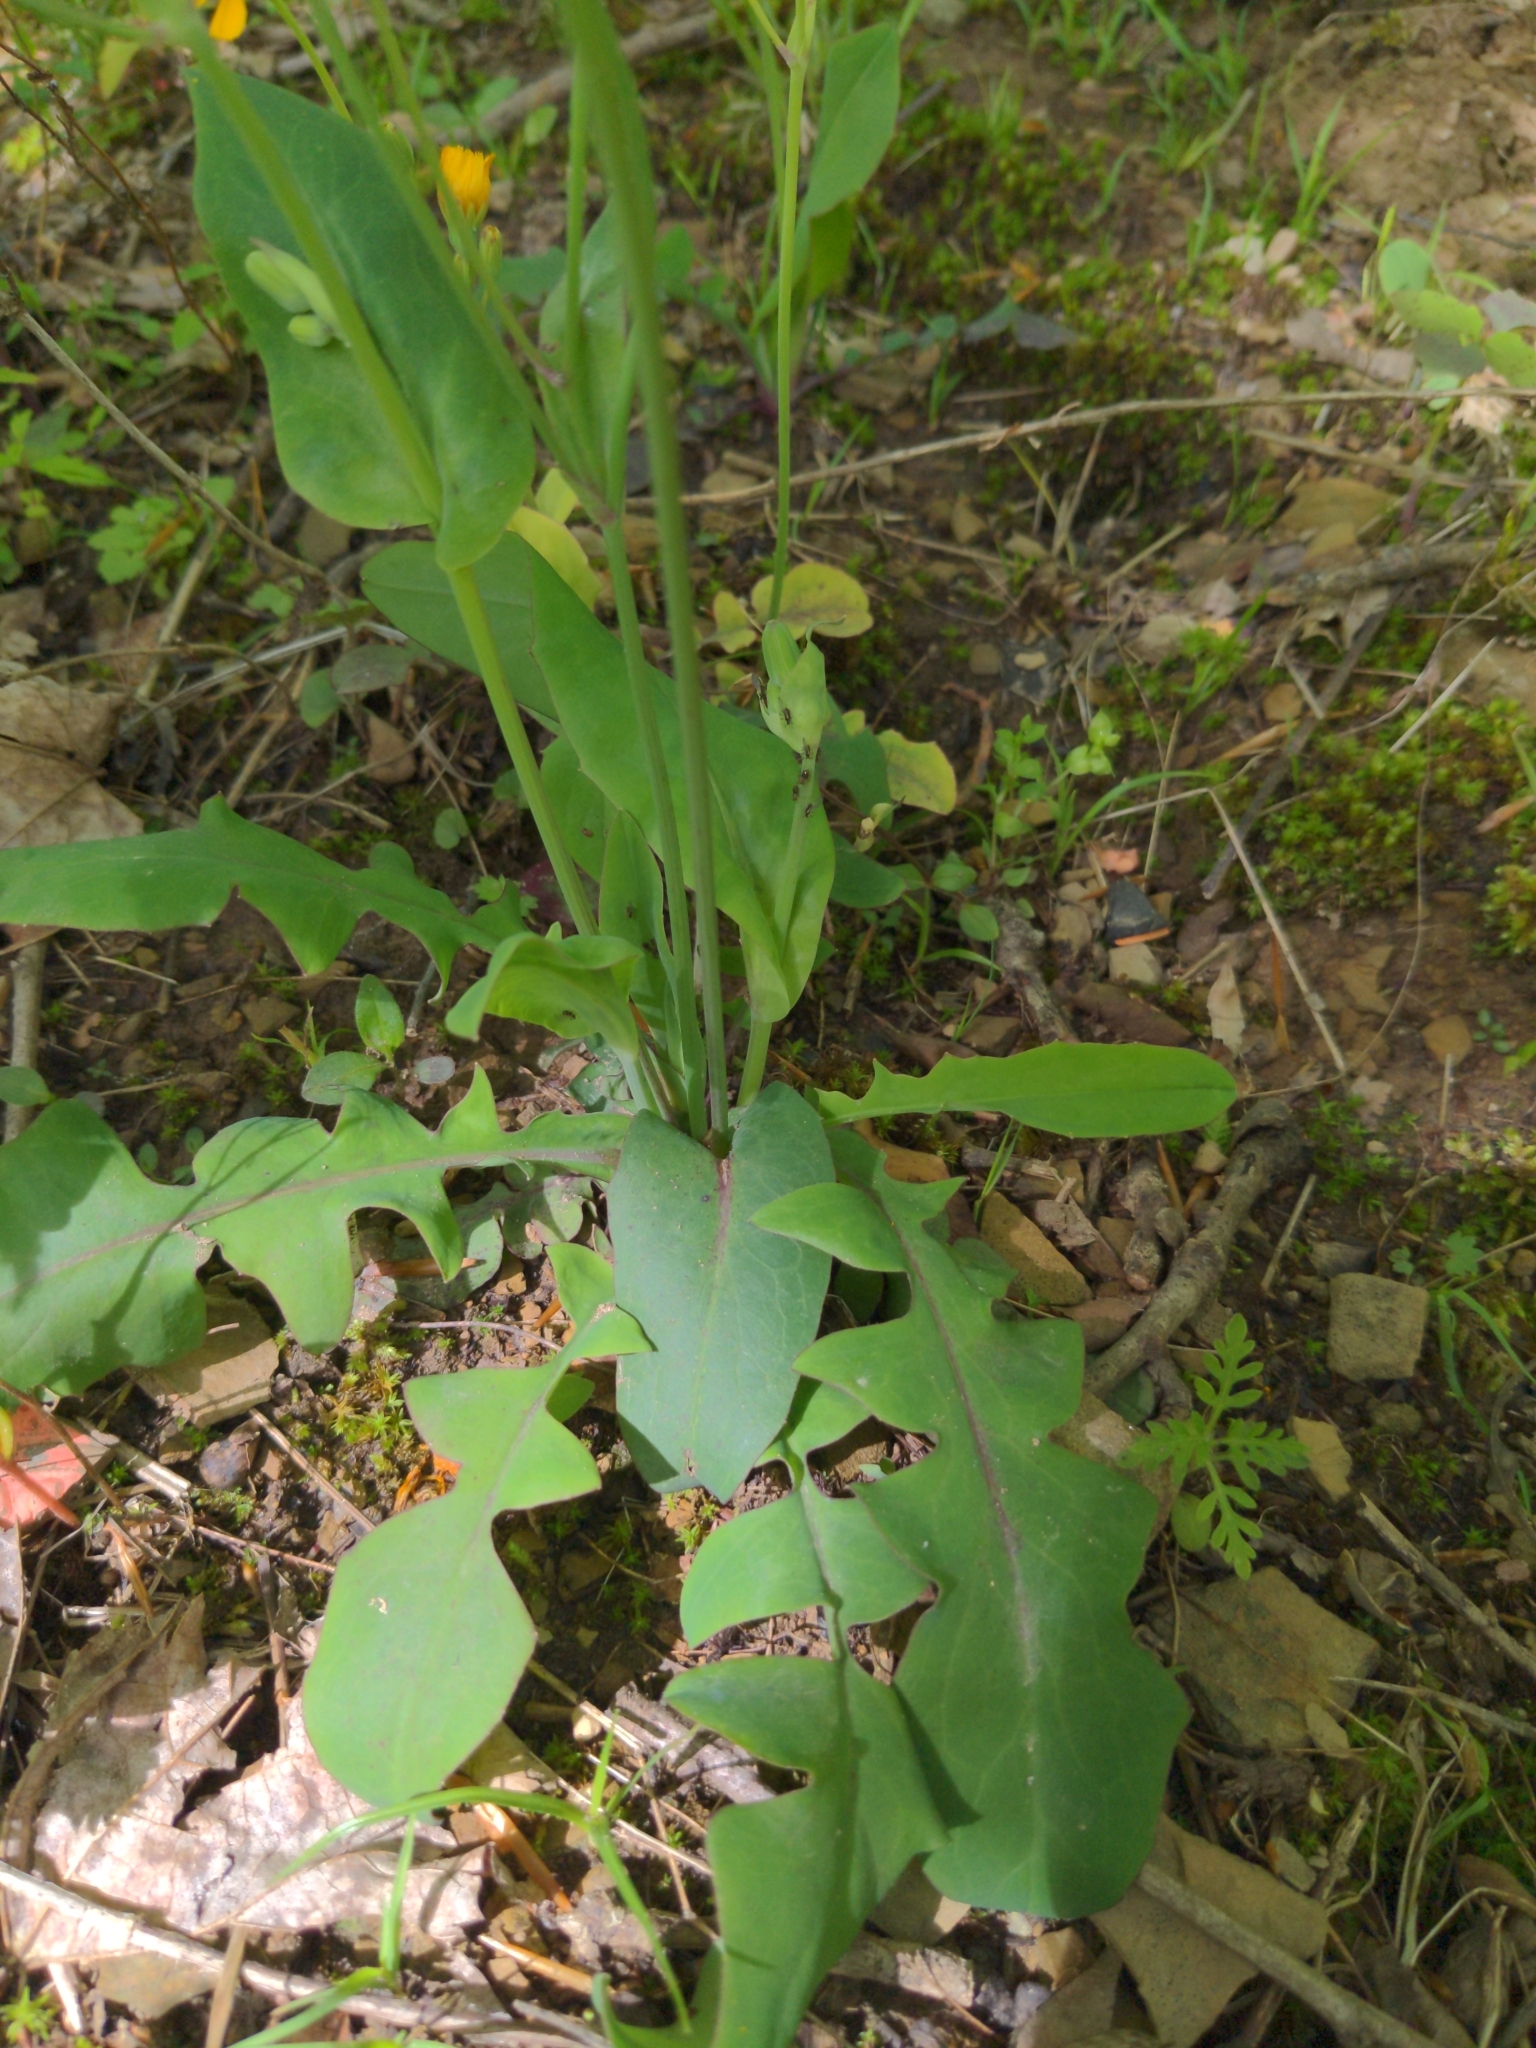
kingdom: Plantae
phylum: Tracheophyta
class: Magnoliopsida
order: Asterales
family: Asteraceae
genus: Krigia
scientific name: Krigia biflora
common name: Orange dwarf-dandelion
